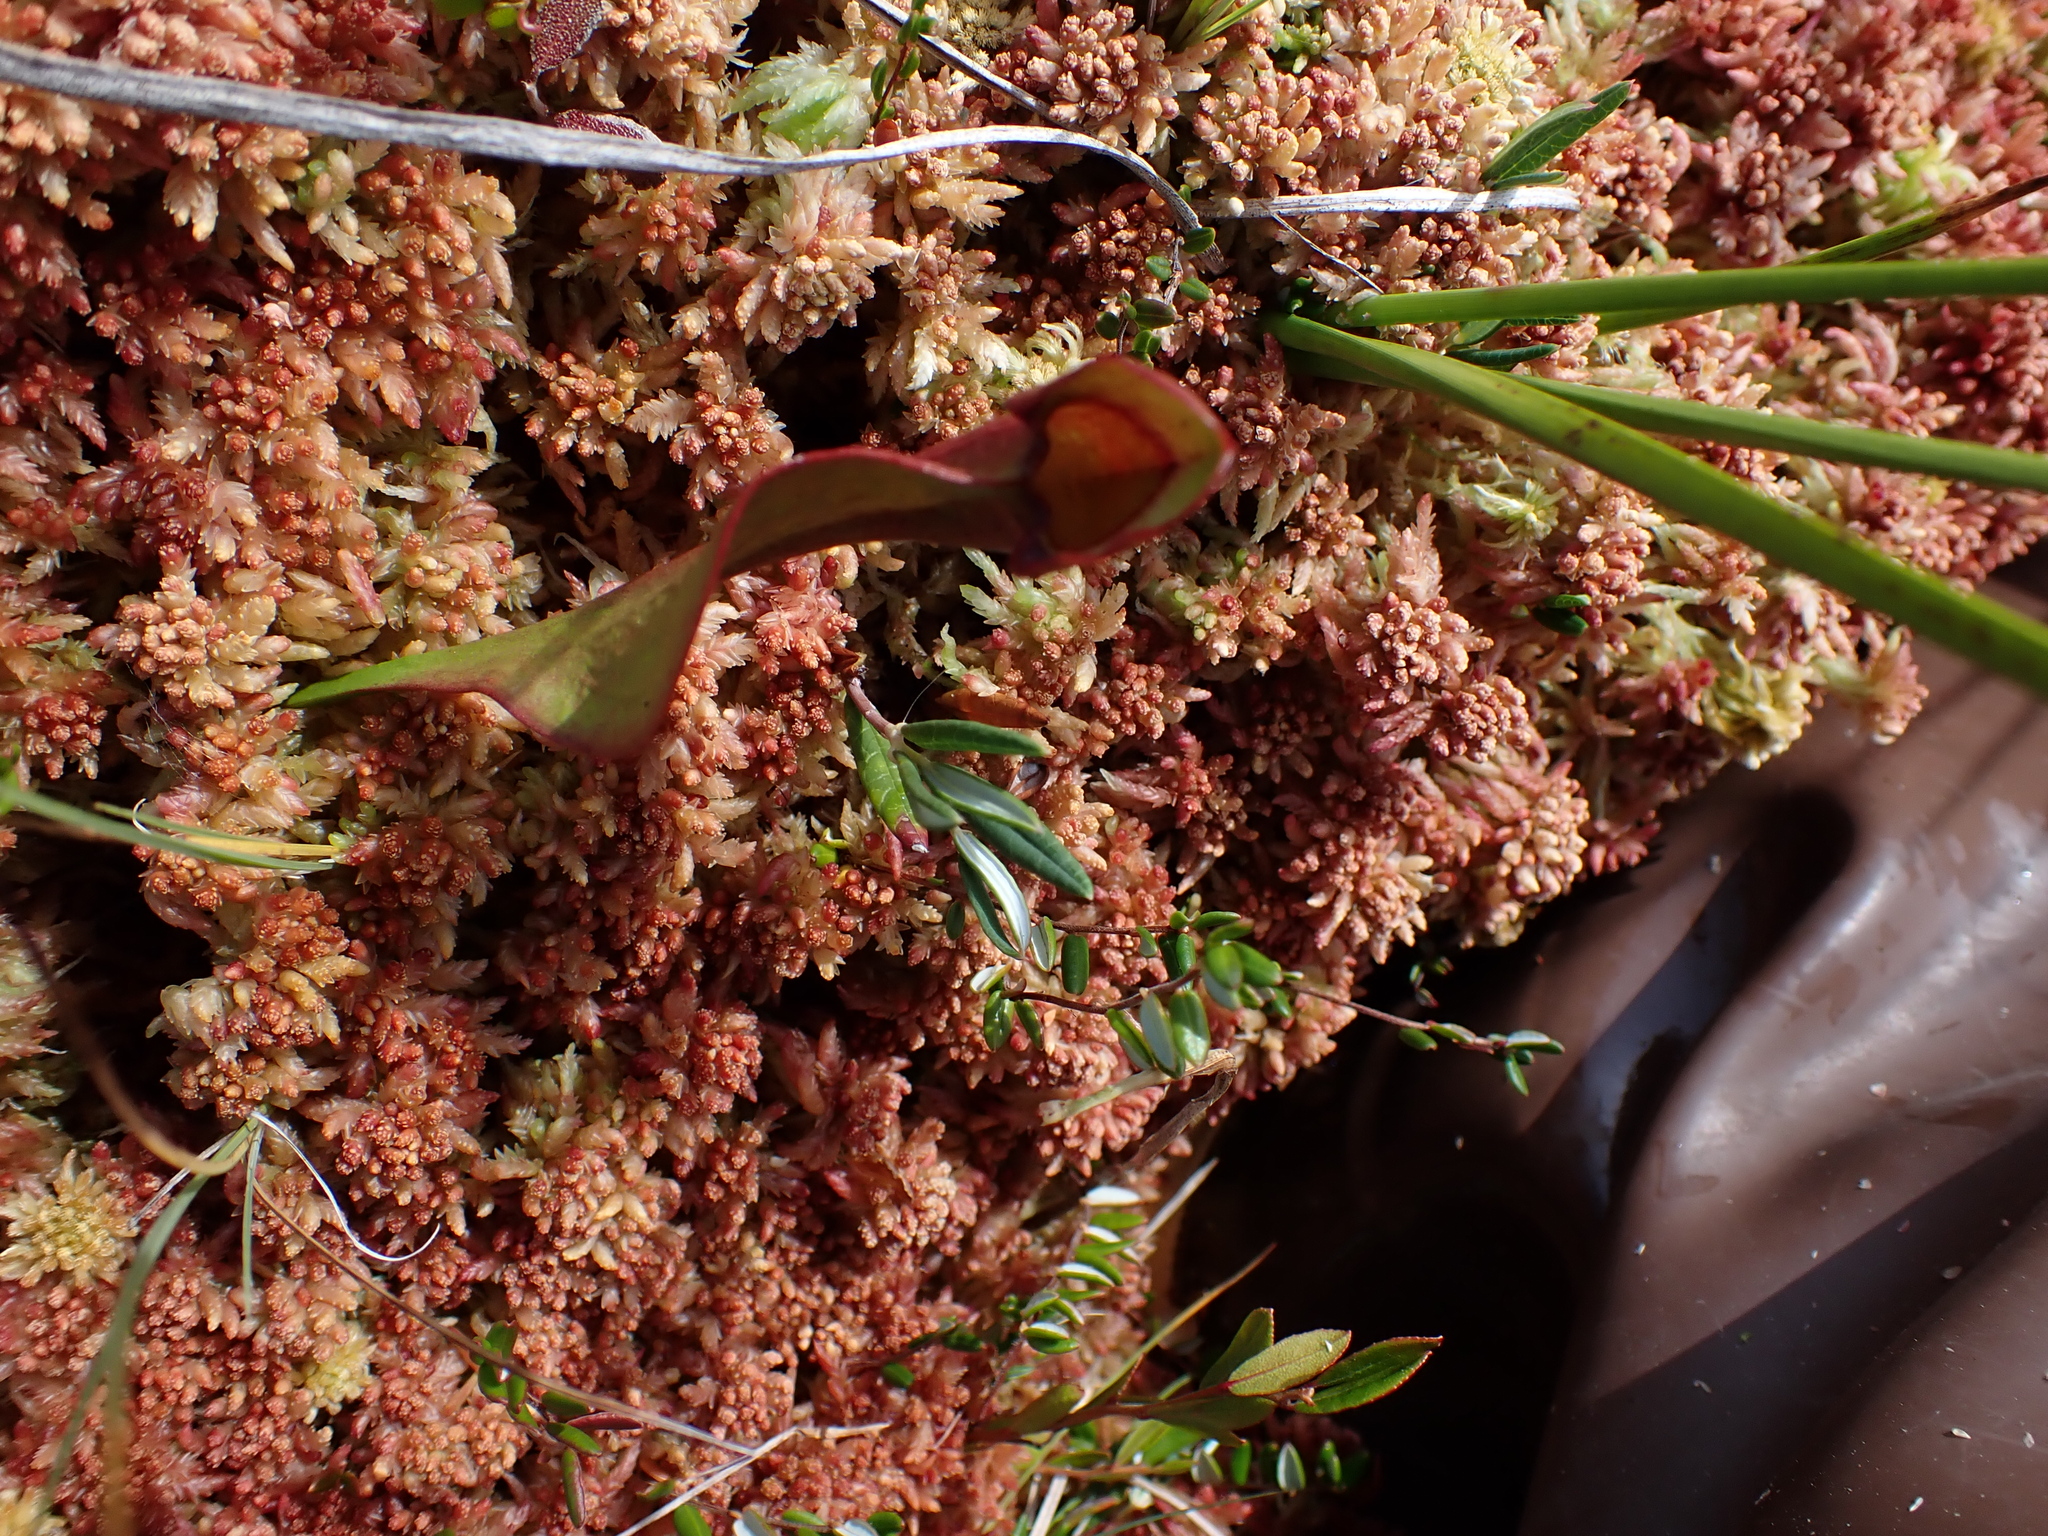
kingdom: Plantae
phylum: Tracheophyta
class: Magnoliopsida
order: Ericales
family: Sarraceniaceae
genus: Sarracenia
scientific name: Sarracenia purpurea
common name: Pitcherplant
